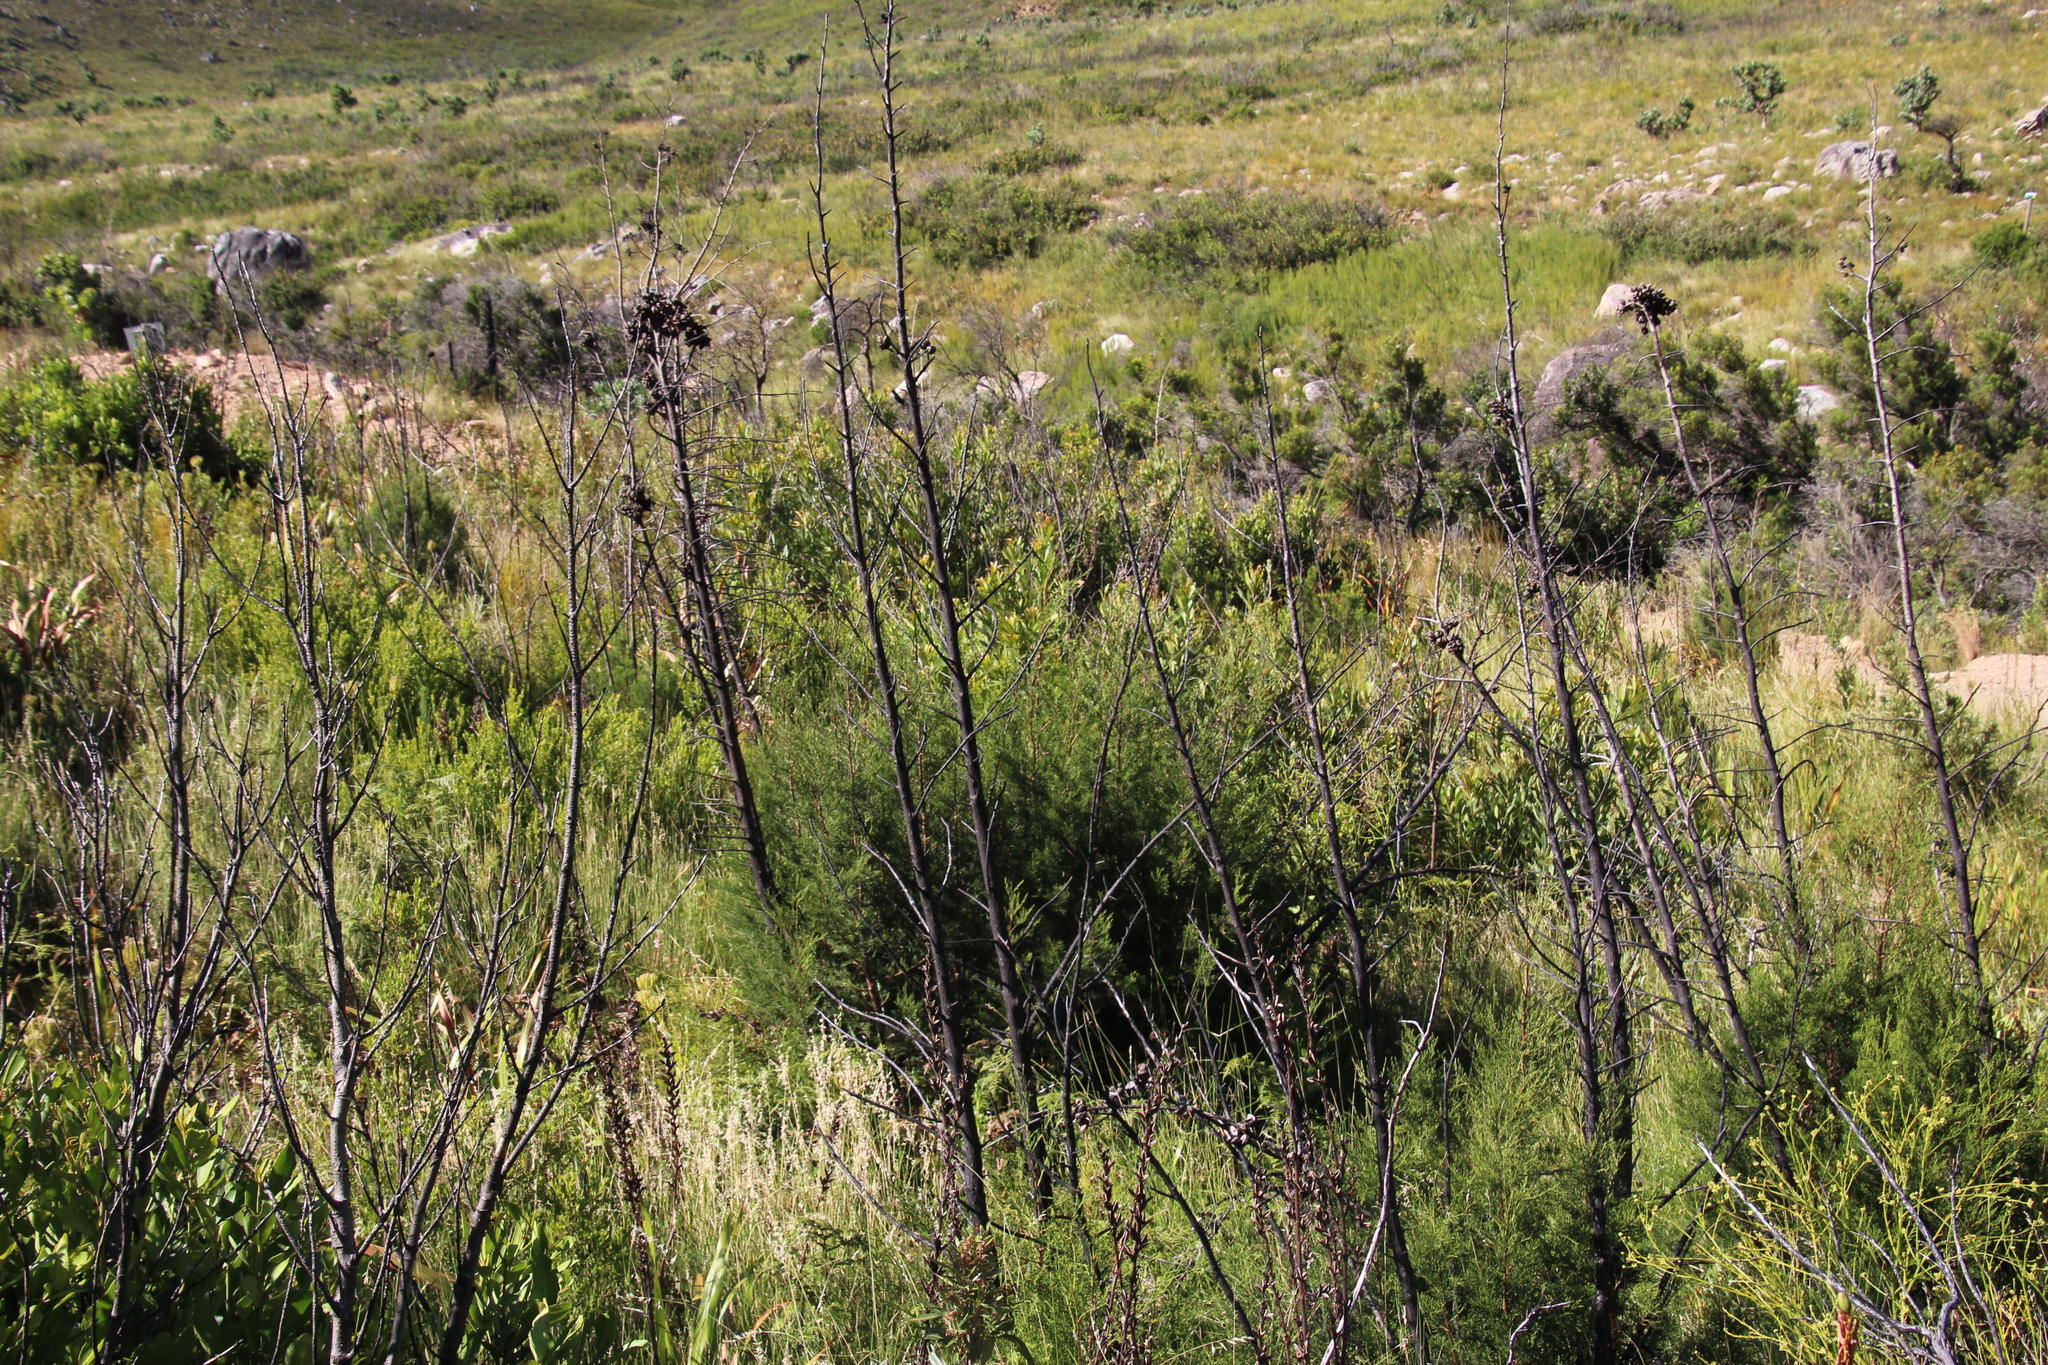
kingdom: Plantae
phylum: Tracheophyta
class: Pinopsida
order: Pinales
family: Cupressaceae
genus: Widdringtonia
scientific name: Widdringtonia nodiflora
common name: Cape cypress
